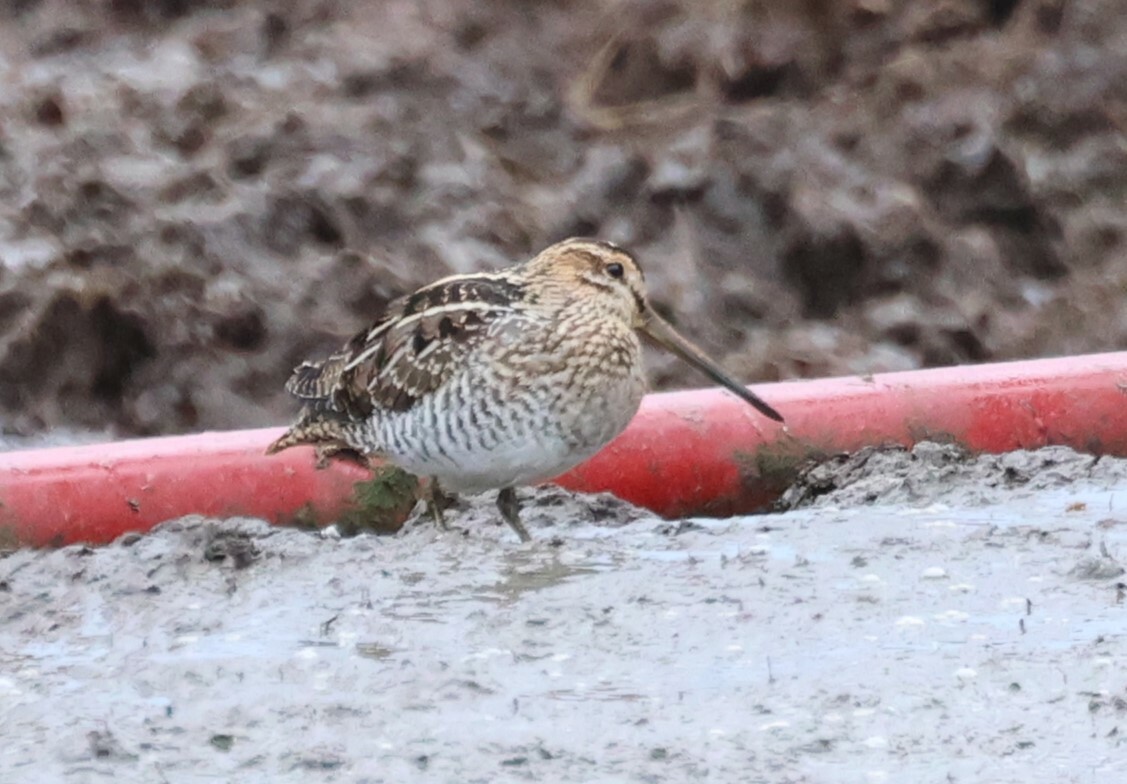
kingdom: Animalia
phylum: Chordata
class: Aves
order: Charadriiformes
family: Scolopacidae
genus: Gallinago
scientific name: Gallinago delicata
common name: Wilson's snipe
